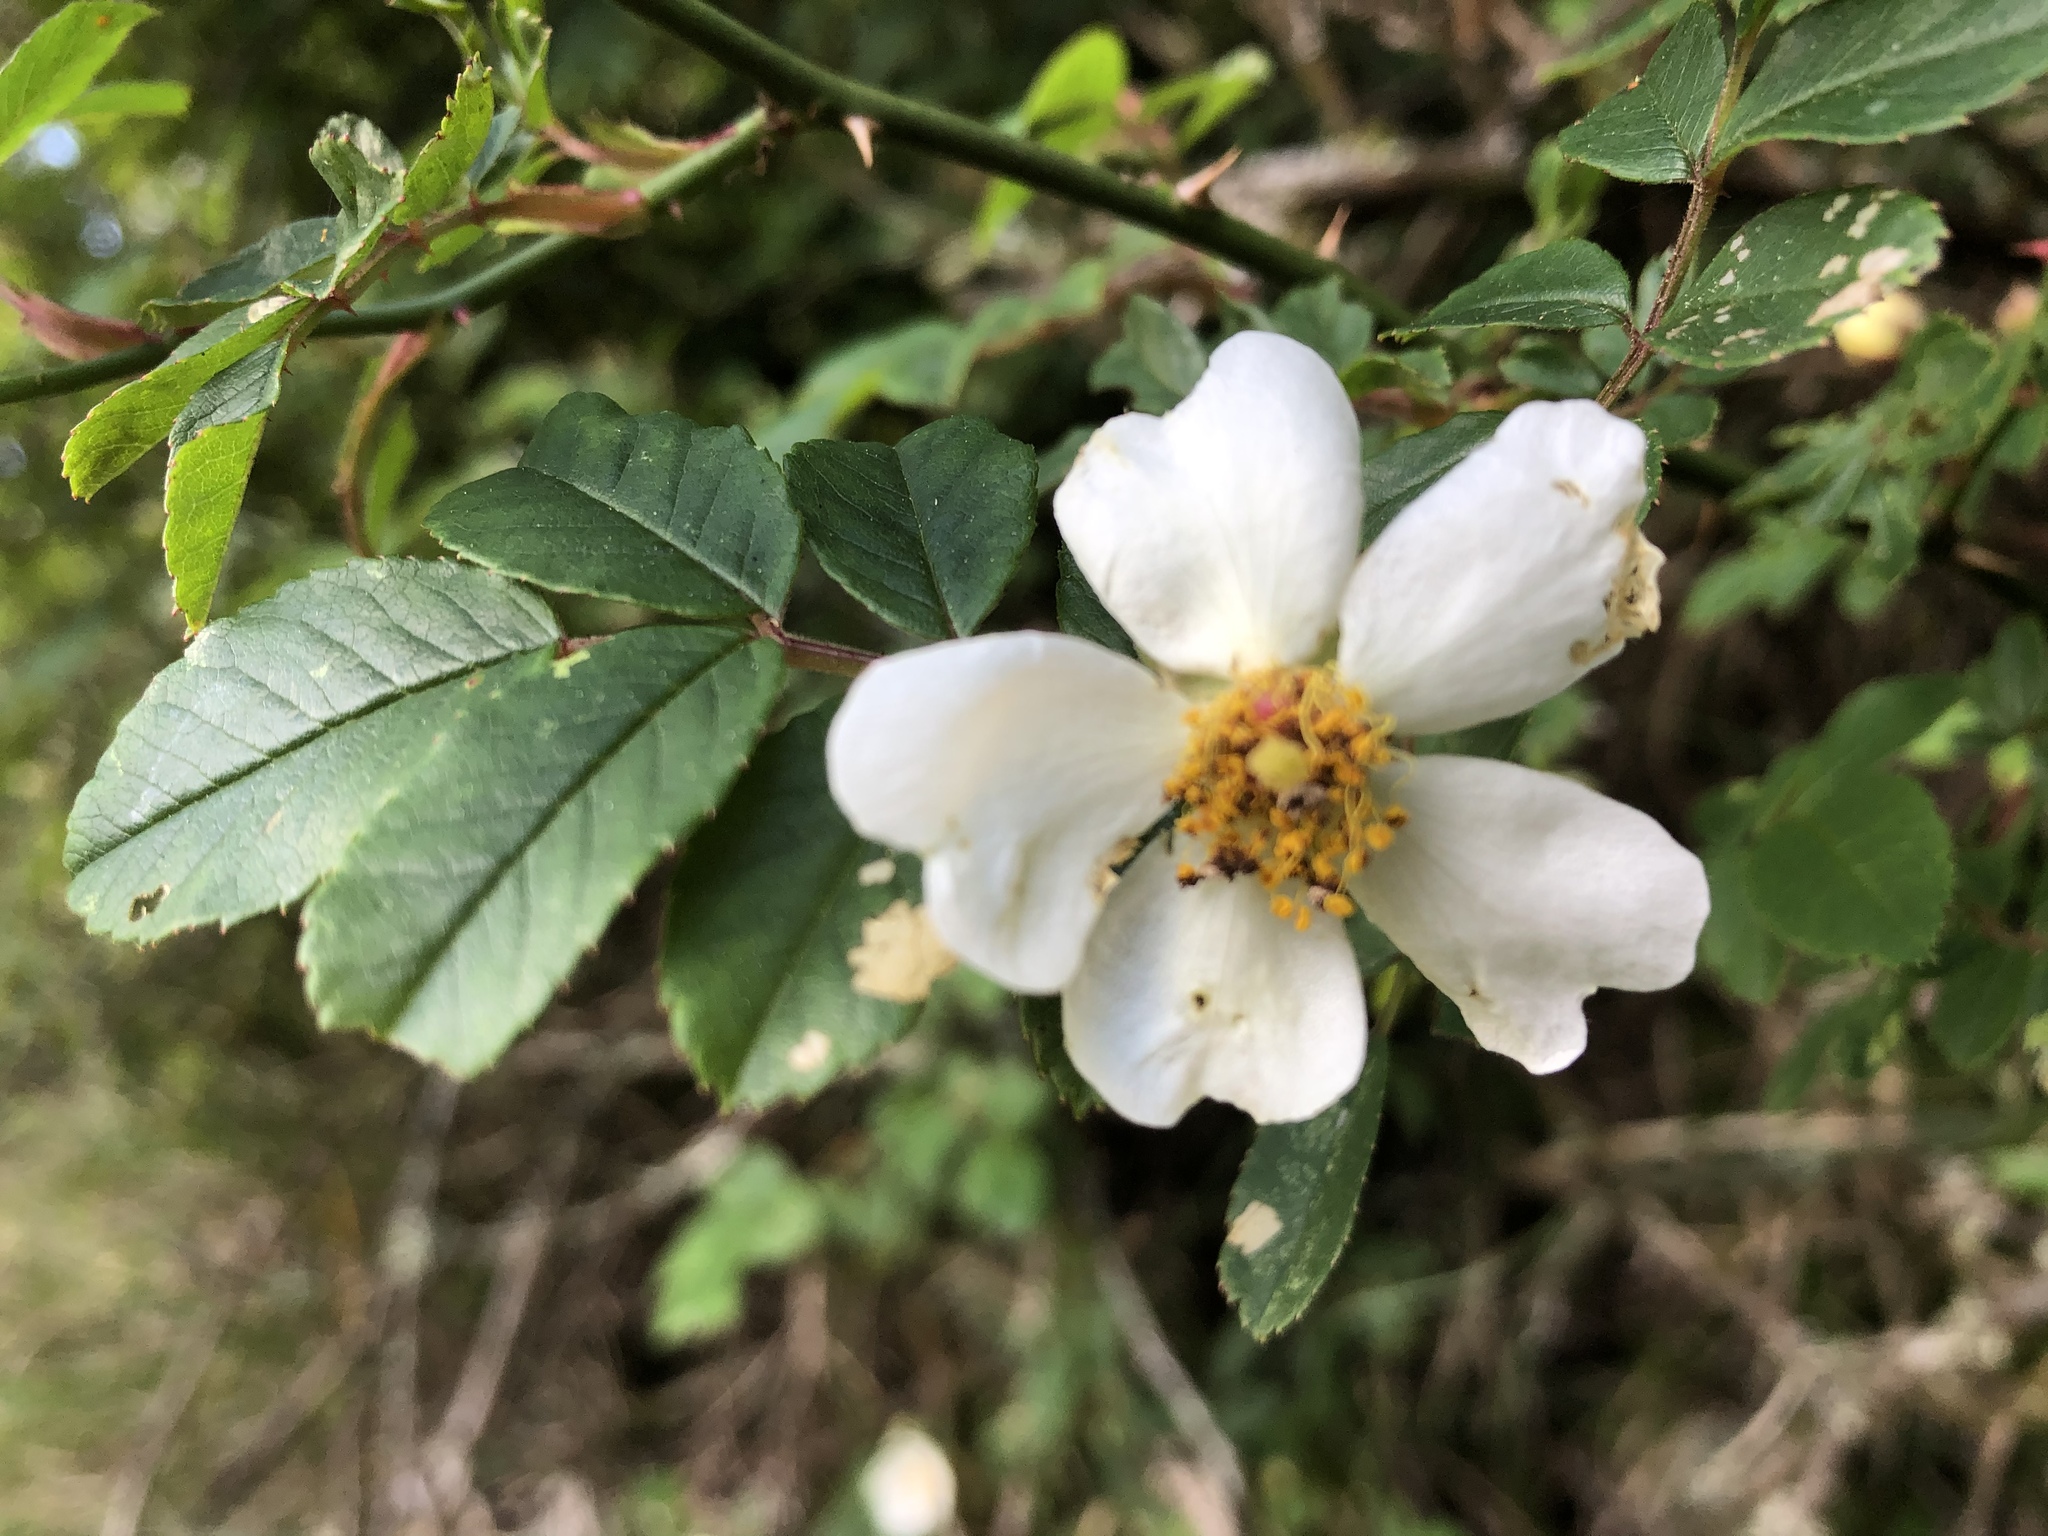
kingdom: Plantae
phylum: Tracheophyta
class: Magnoliopsida
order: Rosales
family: Rosaceae
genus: Rosa
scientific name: Rosa transmorrisonensis
